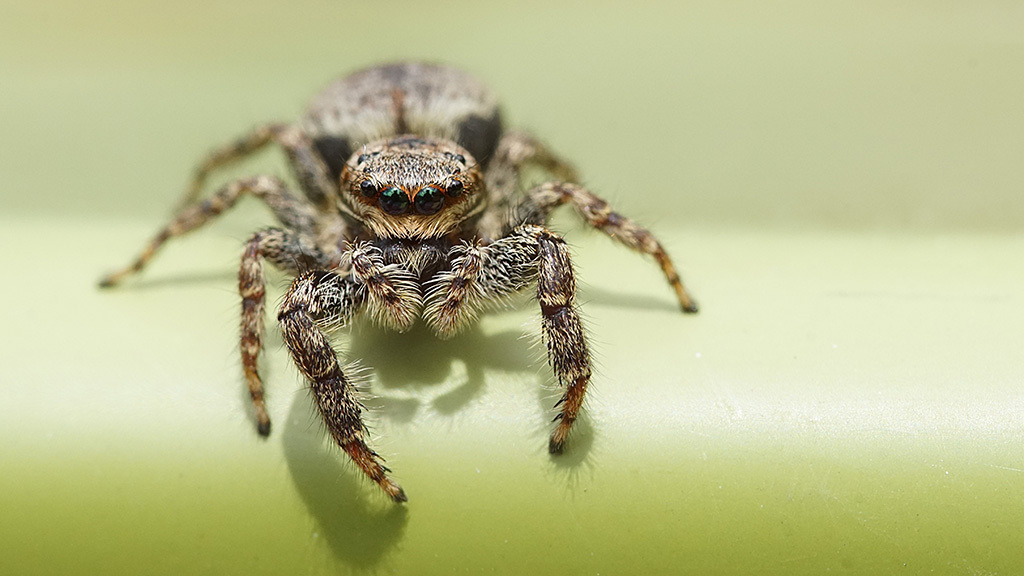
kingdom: Animalia
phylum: Arthropoda
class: Arachnida
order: Araneae
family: Salticidae
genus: Marpissa
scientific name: Marpissa muscosa
